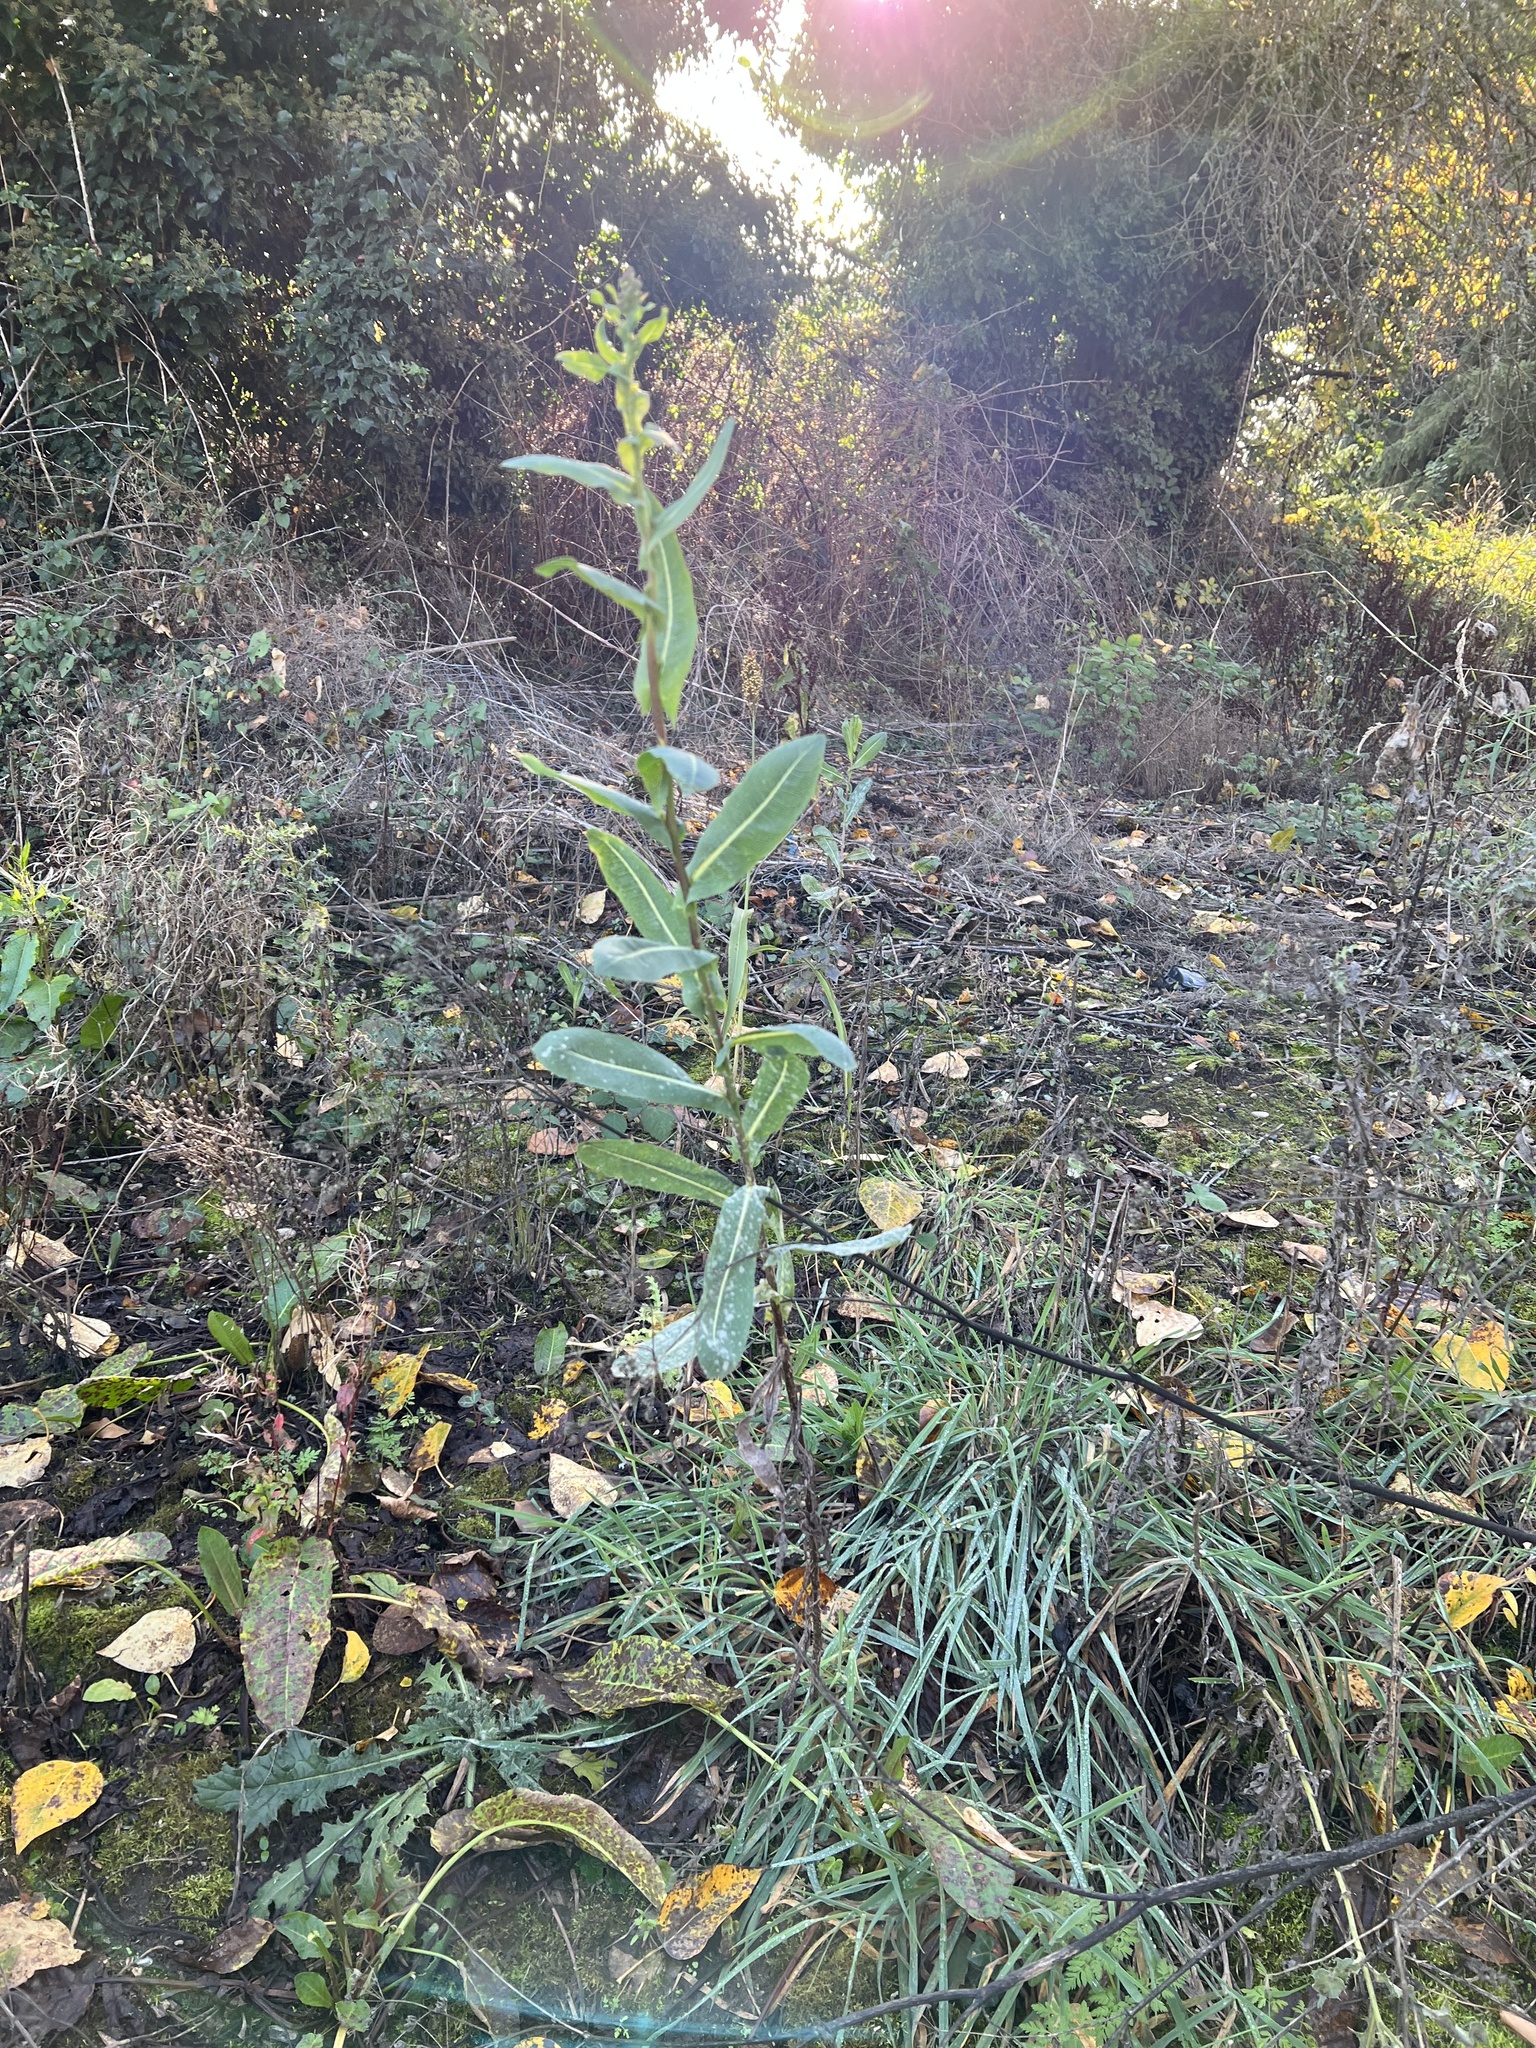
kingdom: Plantae
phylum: Tracheophyta
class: Magnoliopsida
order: Asterales
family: Asteraceae
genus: Lactuca
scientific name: Lactuca serriola
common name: Prickly lettuce
